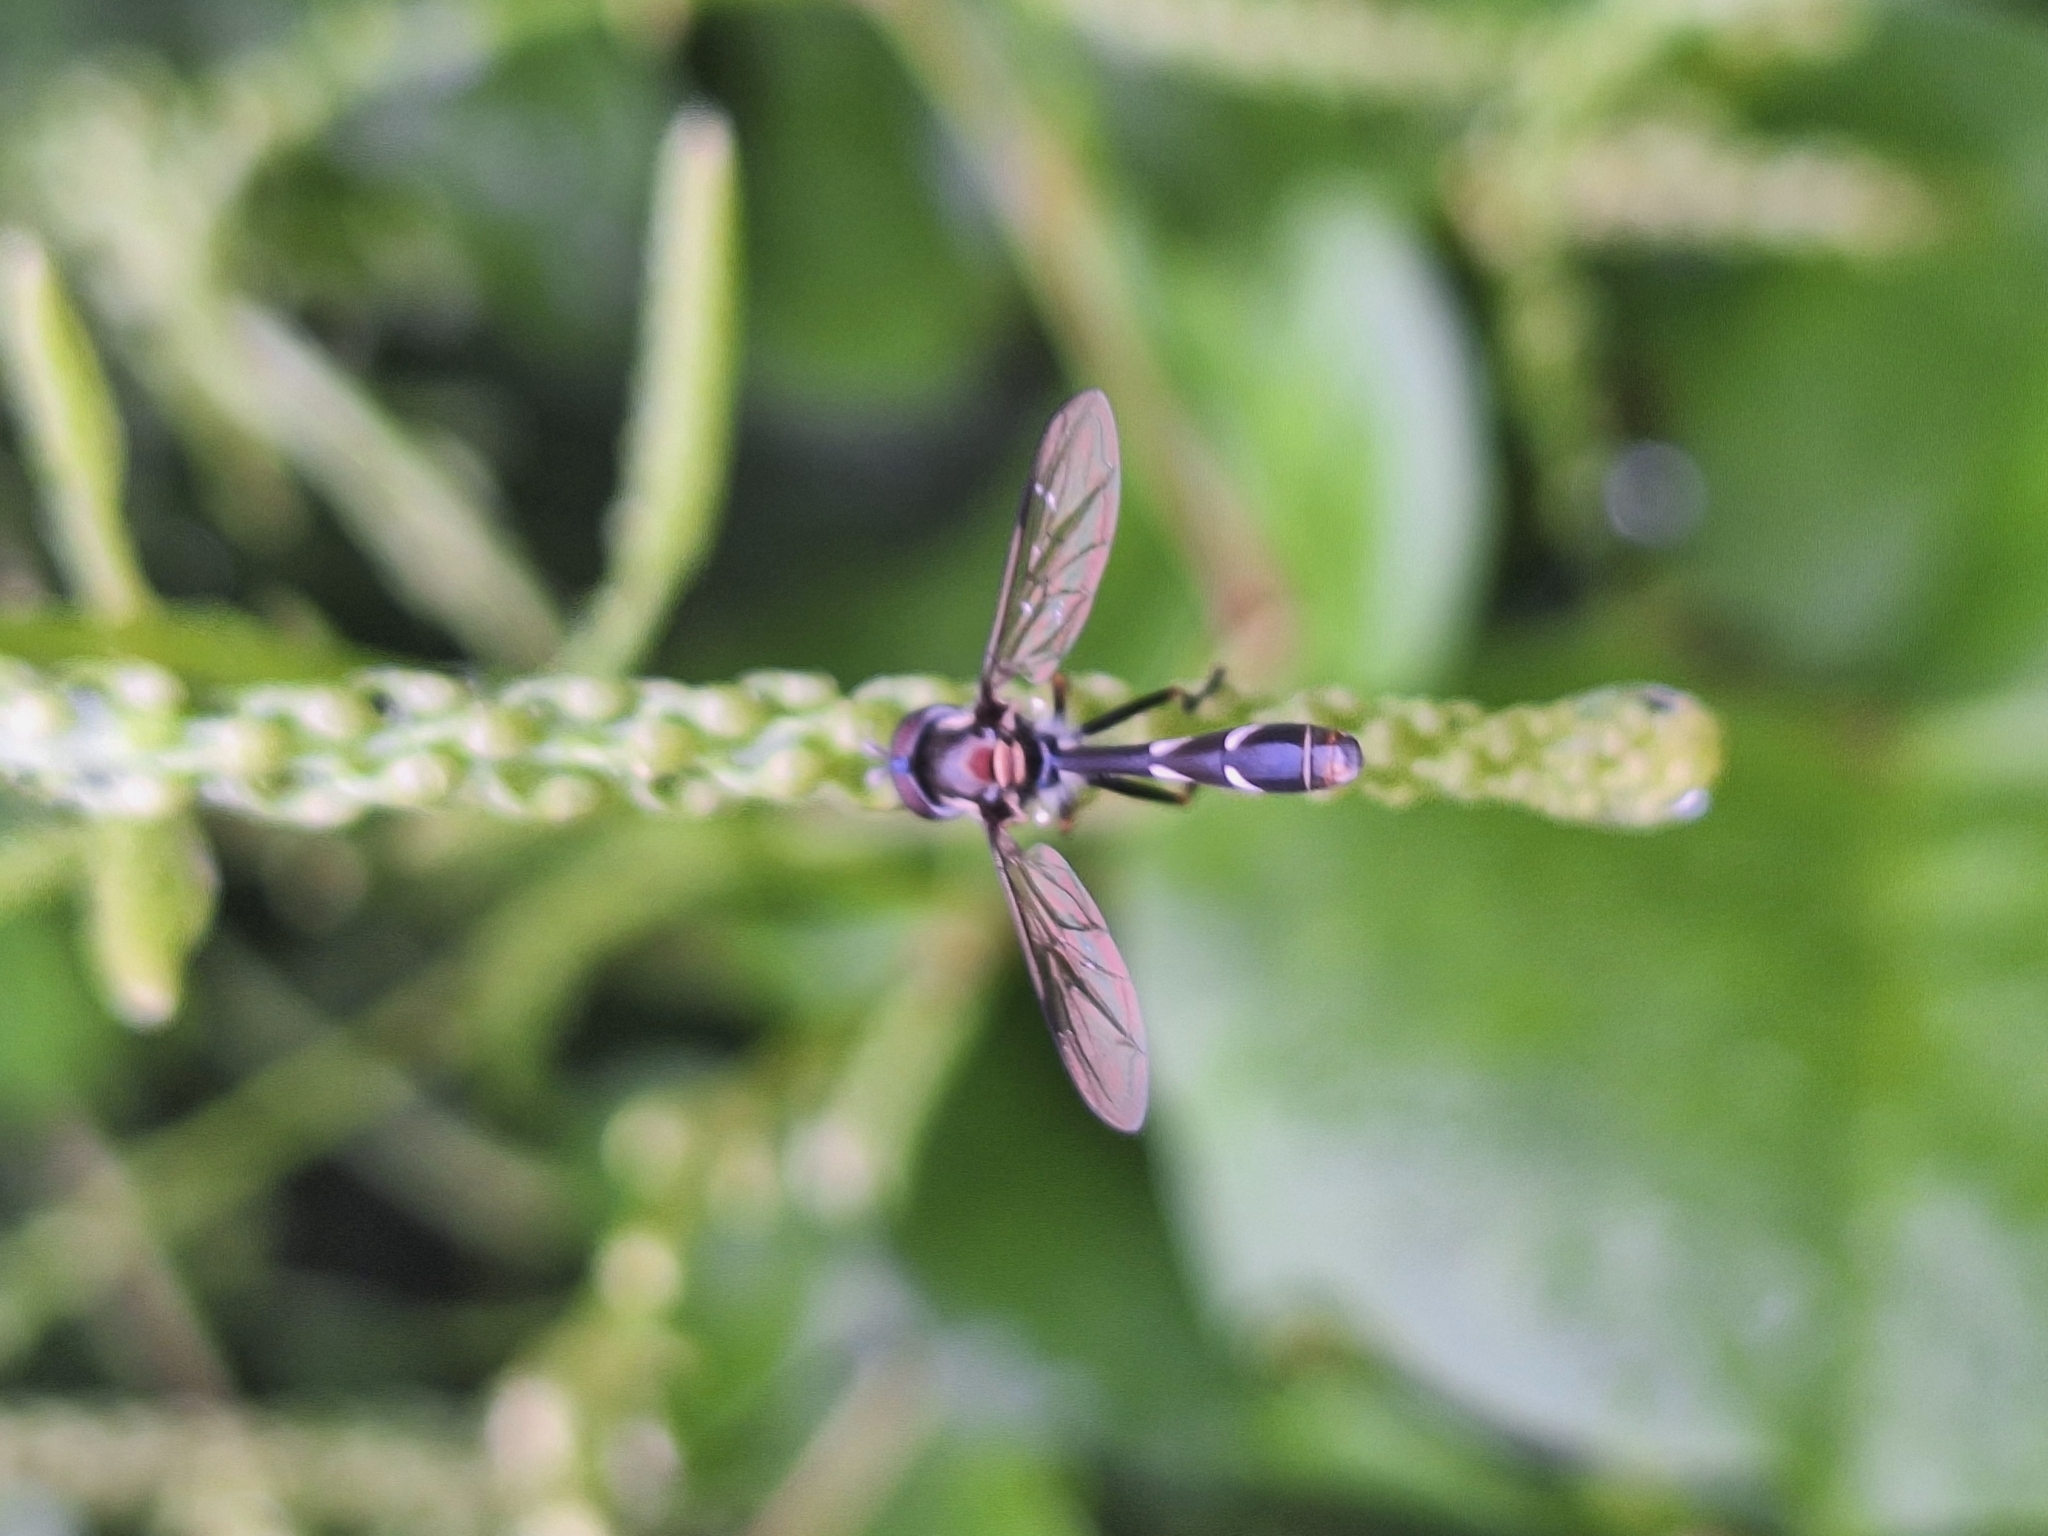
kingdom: Animalia
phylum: Arthropoda
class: Insecta
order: Diptera
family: Syrphidae
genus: Dioprosopa
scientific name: Dioprosopa clavatus
